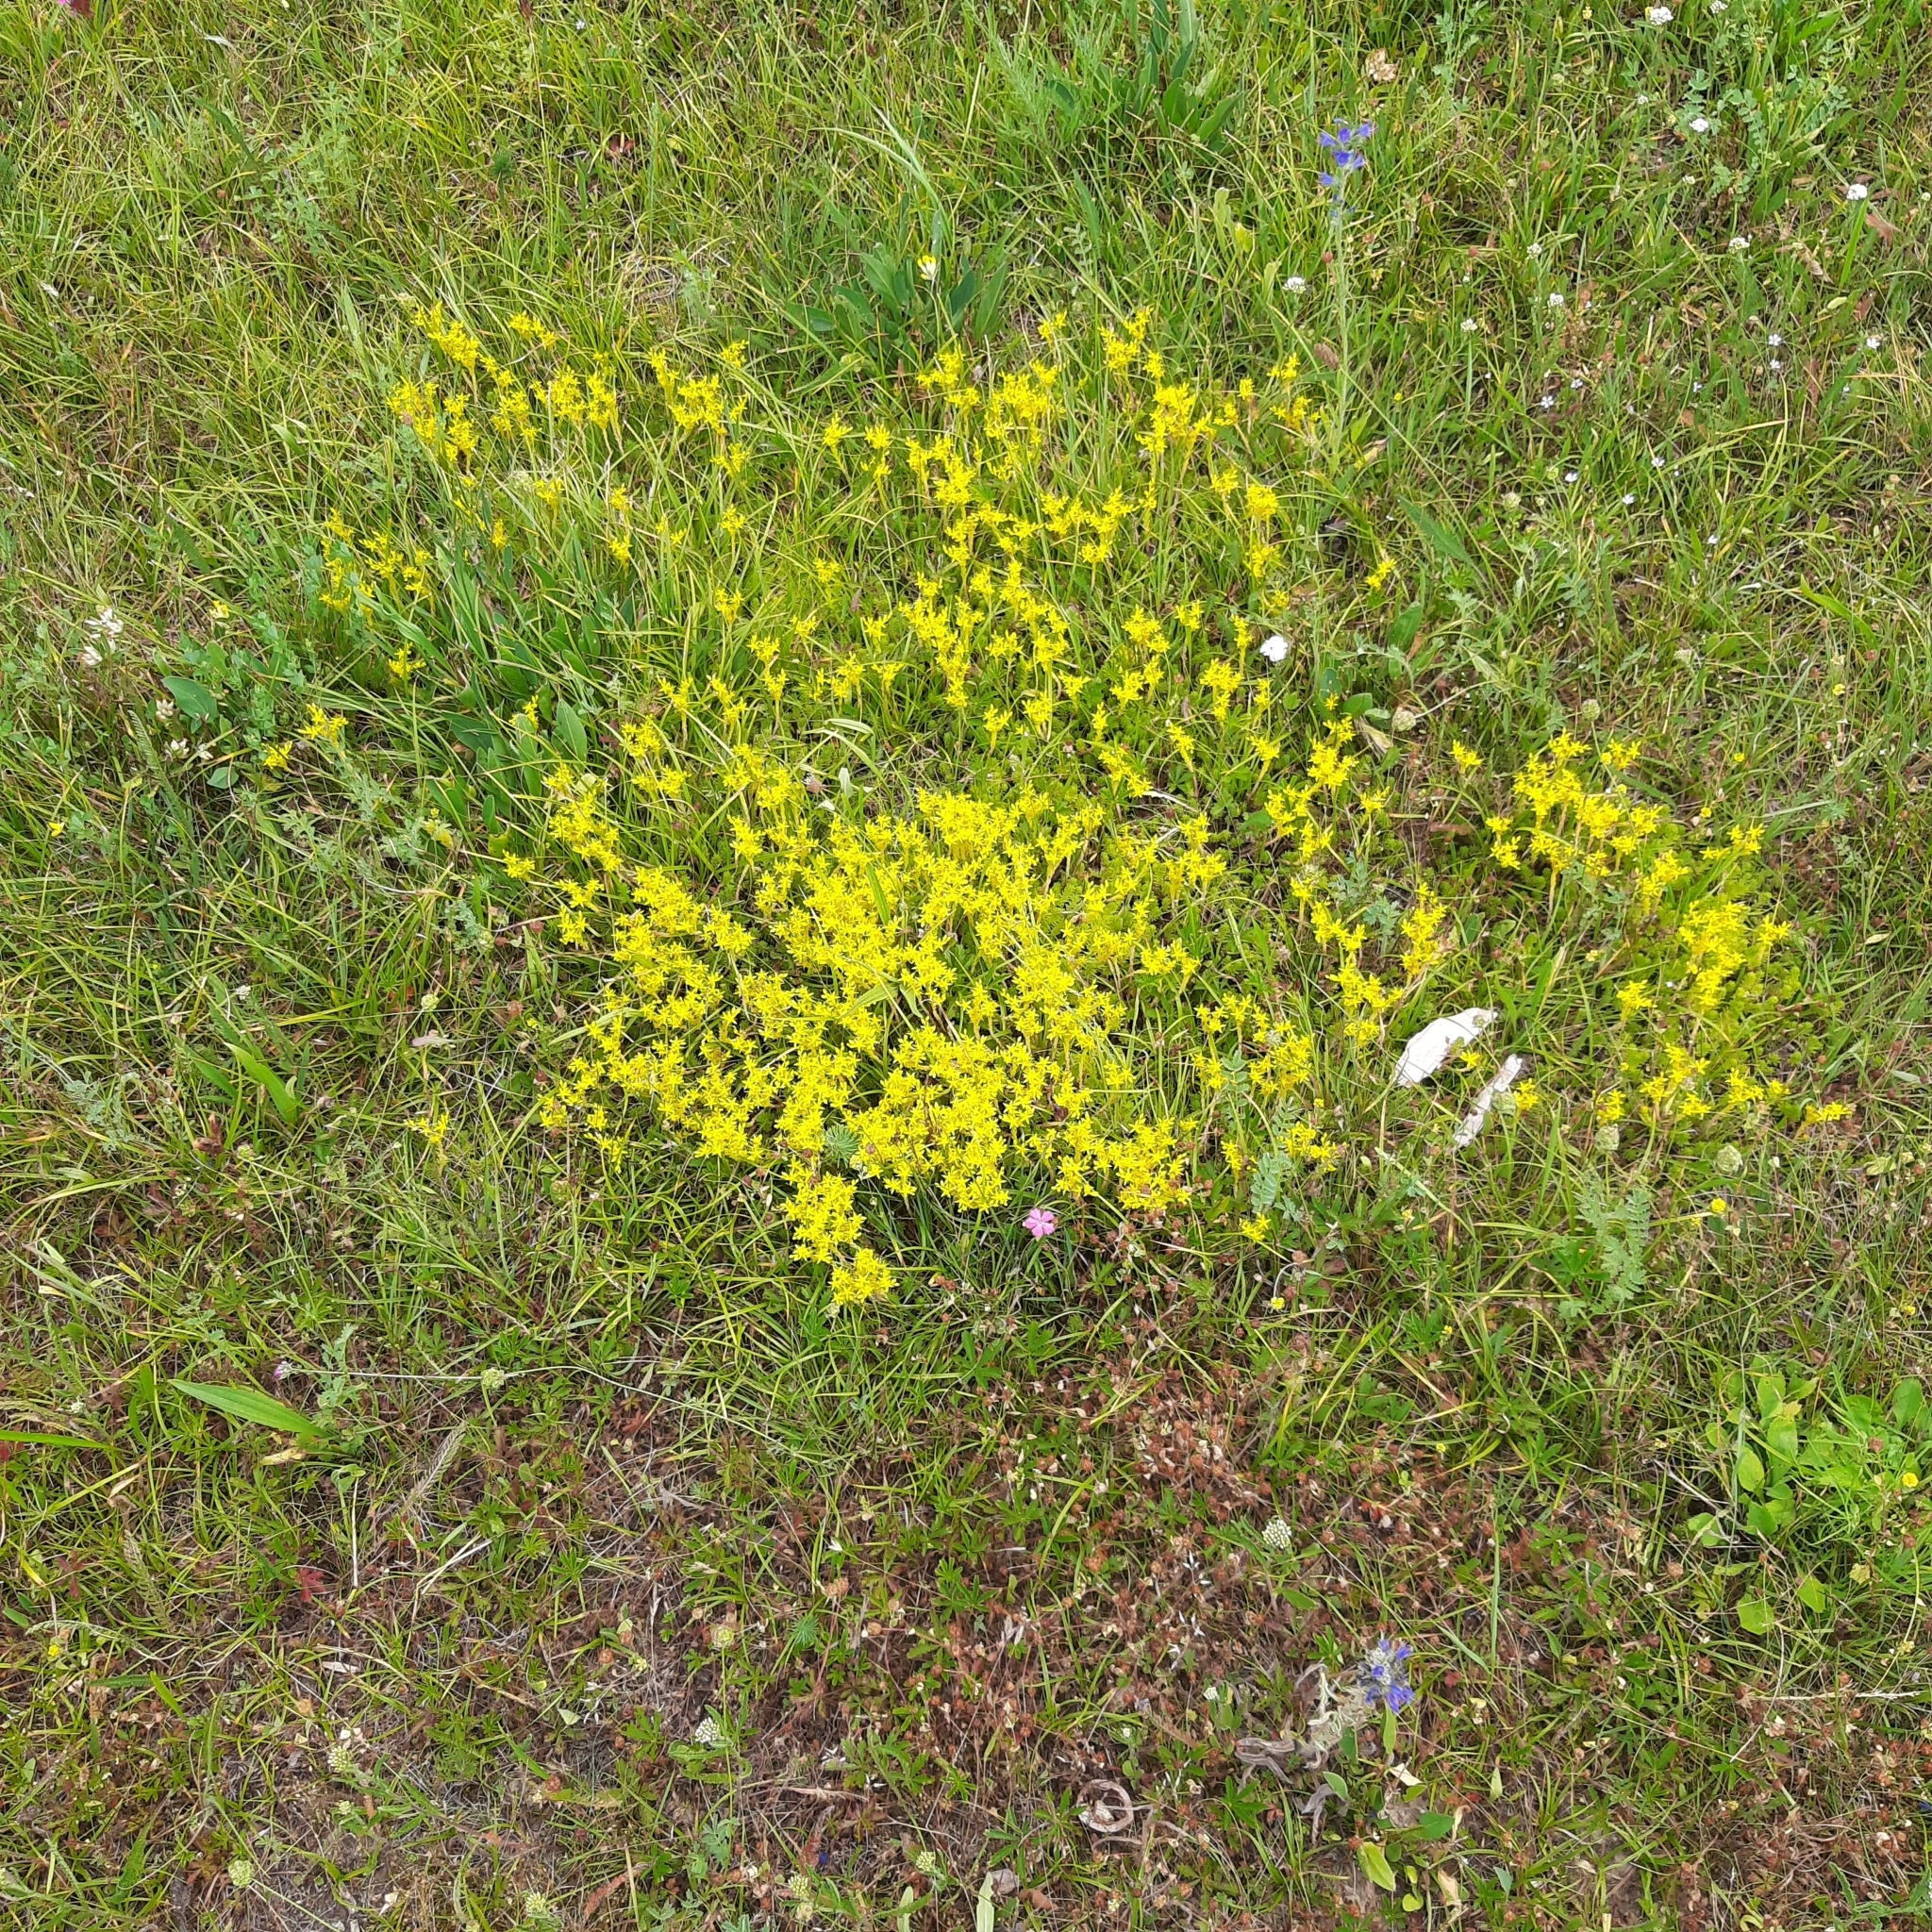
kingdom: Plantae
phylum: Tracheophyta
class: Magnoliopsida
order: Saxifragales
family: Crassulaceae
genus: Sedum
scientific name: Sedum sexangulare
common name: Tasteless stonecrop
